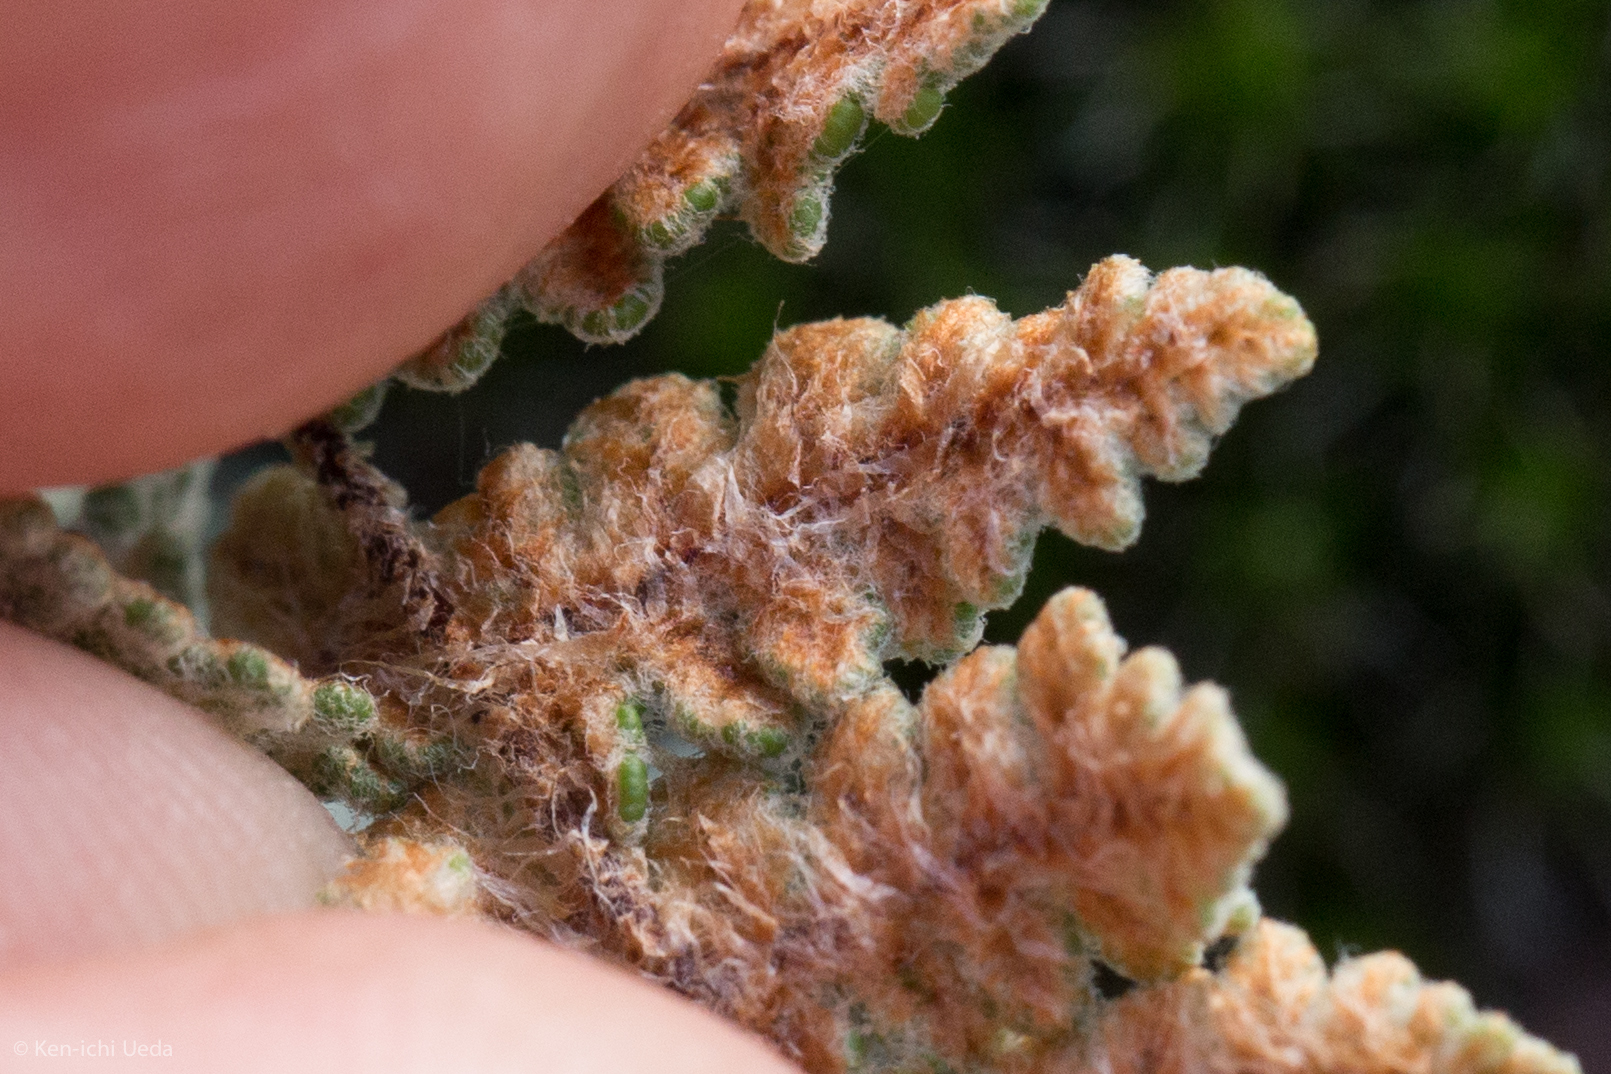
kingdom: Plantae
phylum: Tracheophyta
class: Polypodiopsida
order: Polypodiales
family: Pteridaceae
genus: Myriopteris
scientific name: Myriopteris lindheimeri
